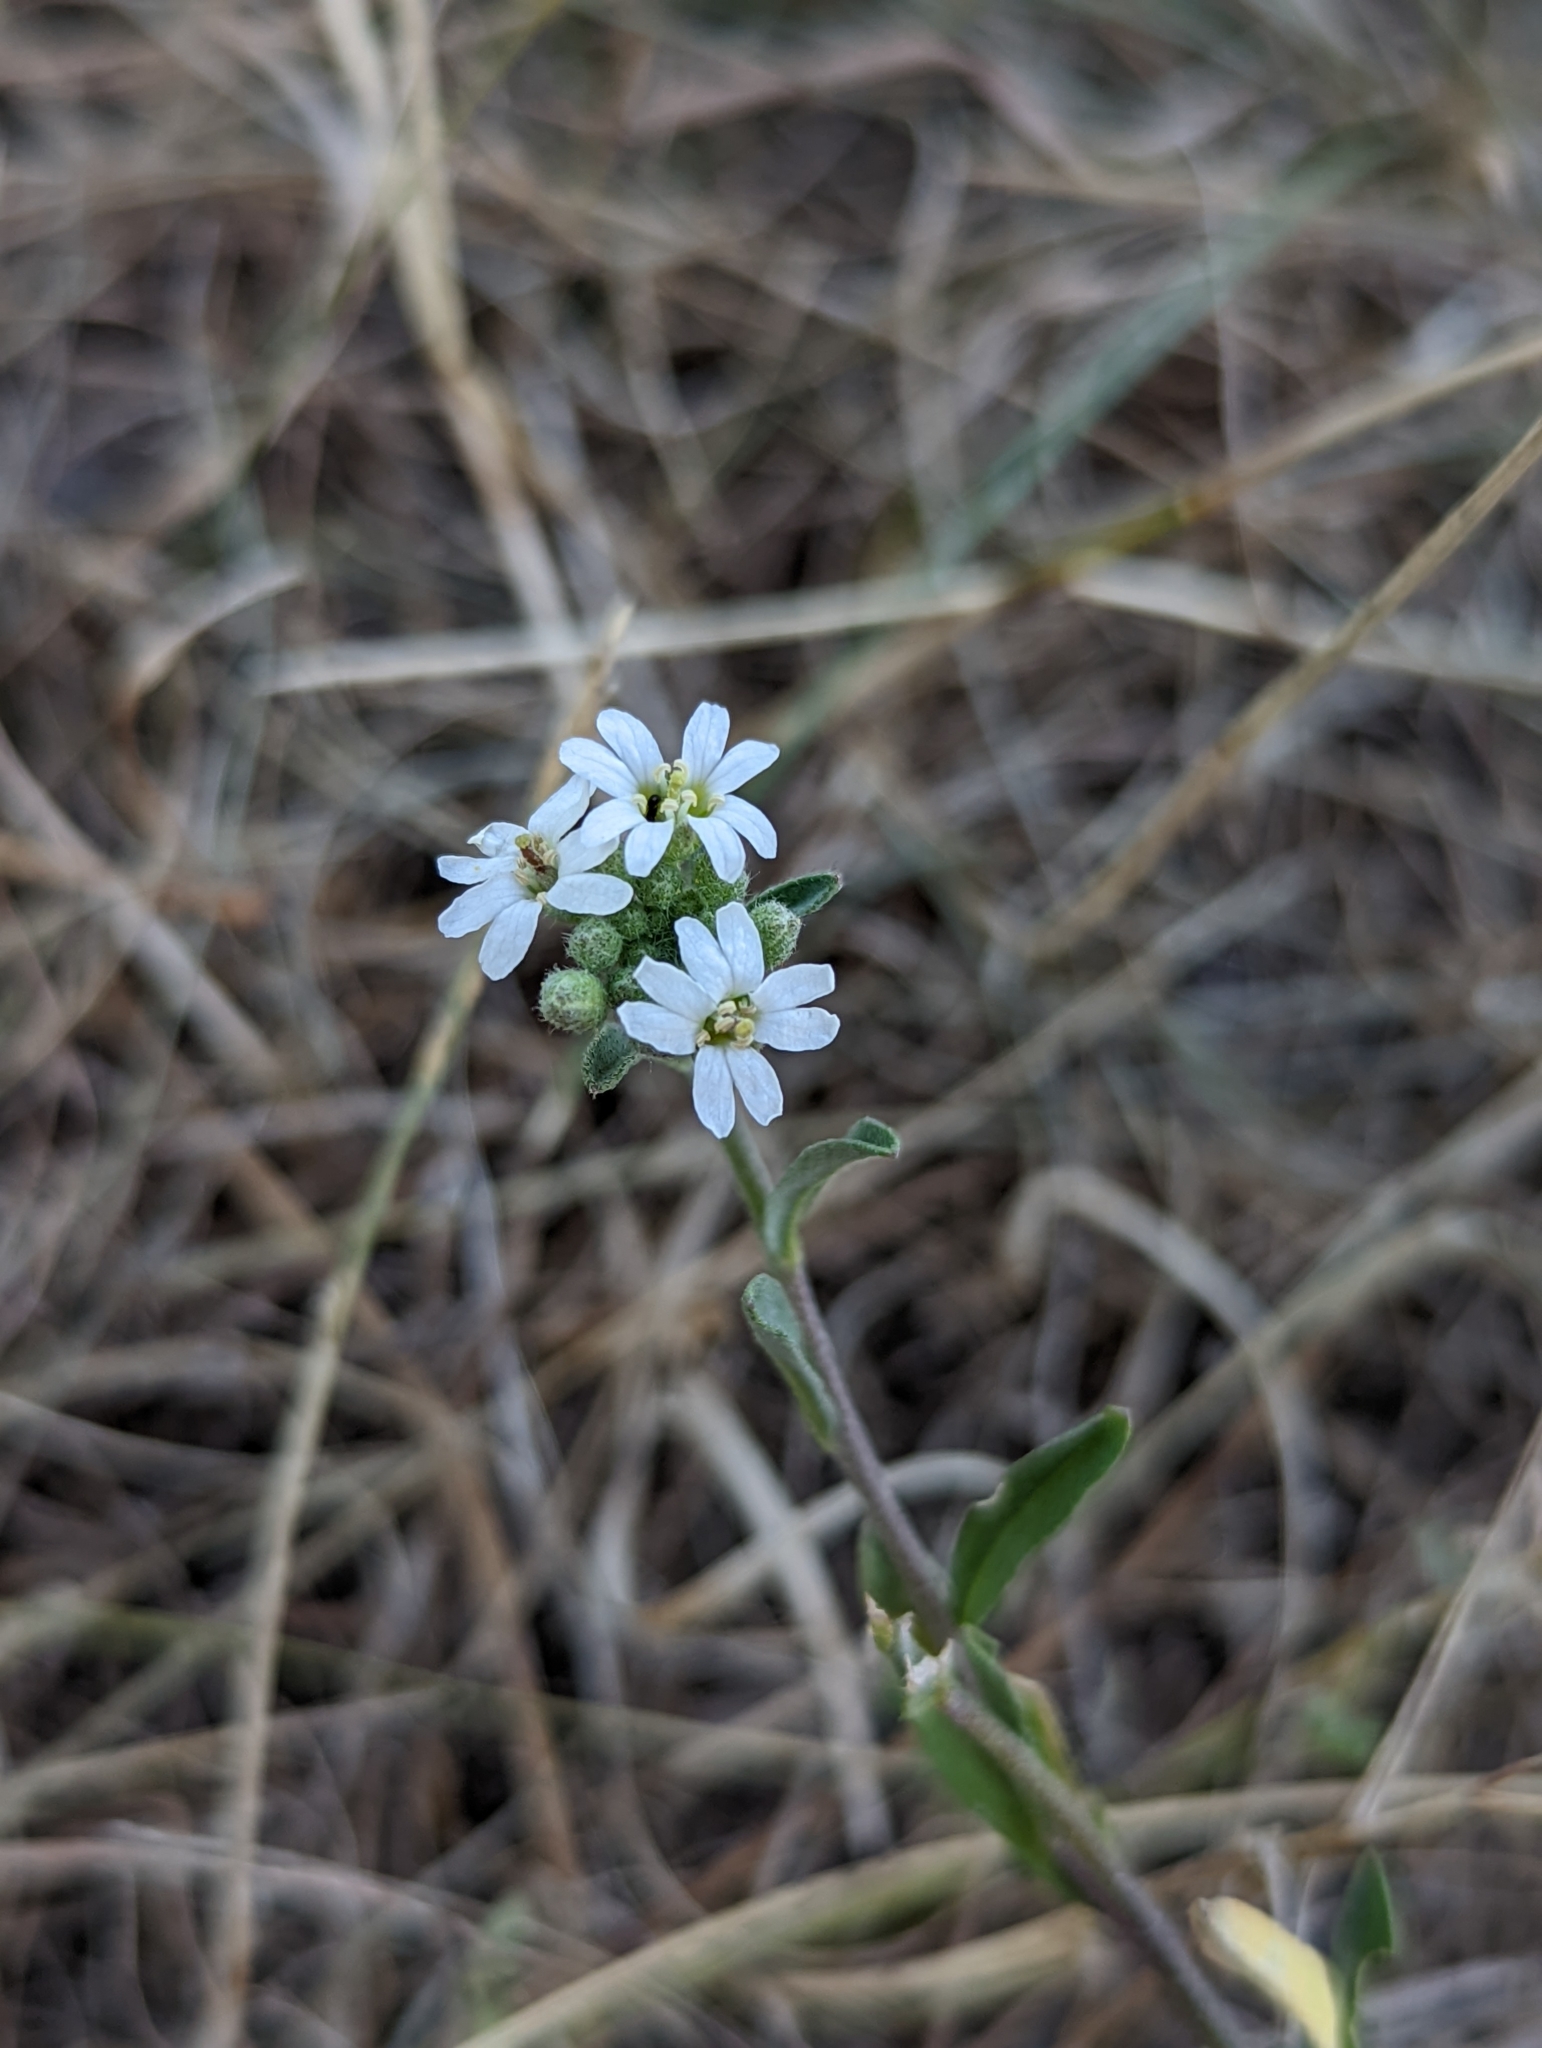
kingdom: Plantae
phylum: Tracheophyta
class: Magnoliopsida
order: Brassicales
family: Brassicaceae
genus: Berteroa
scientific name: Berteroa incana
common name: Hoary alison
